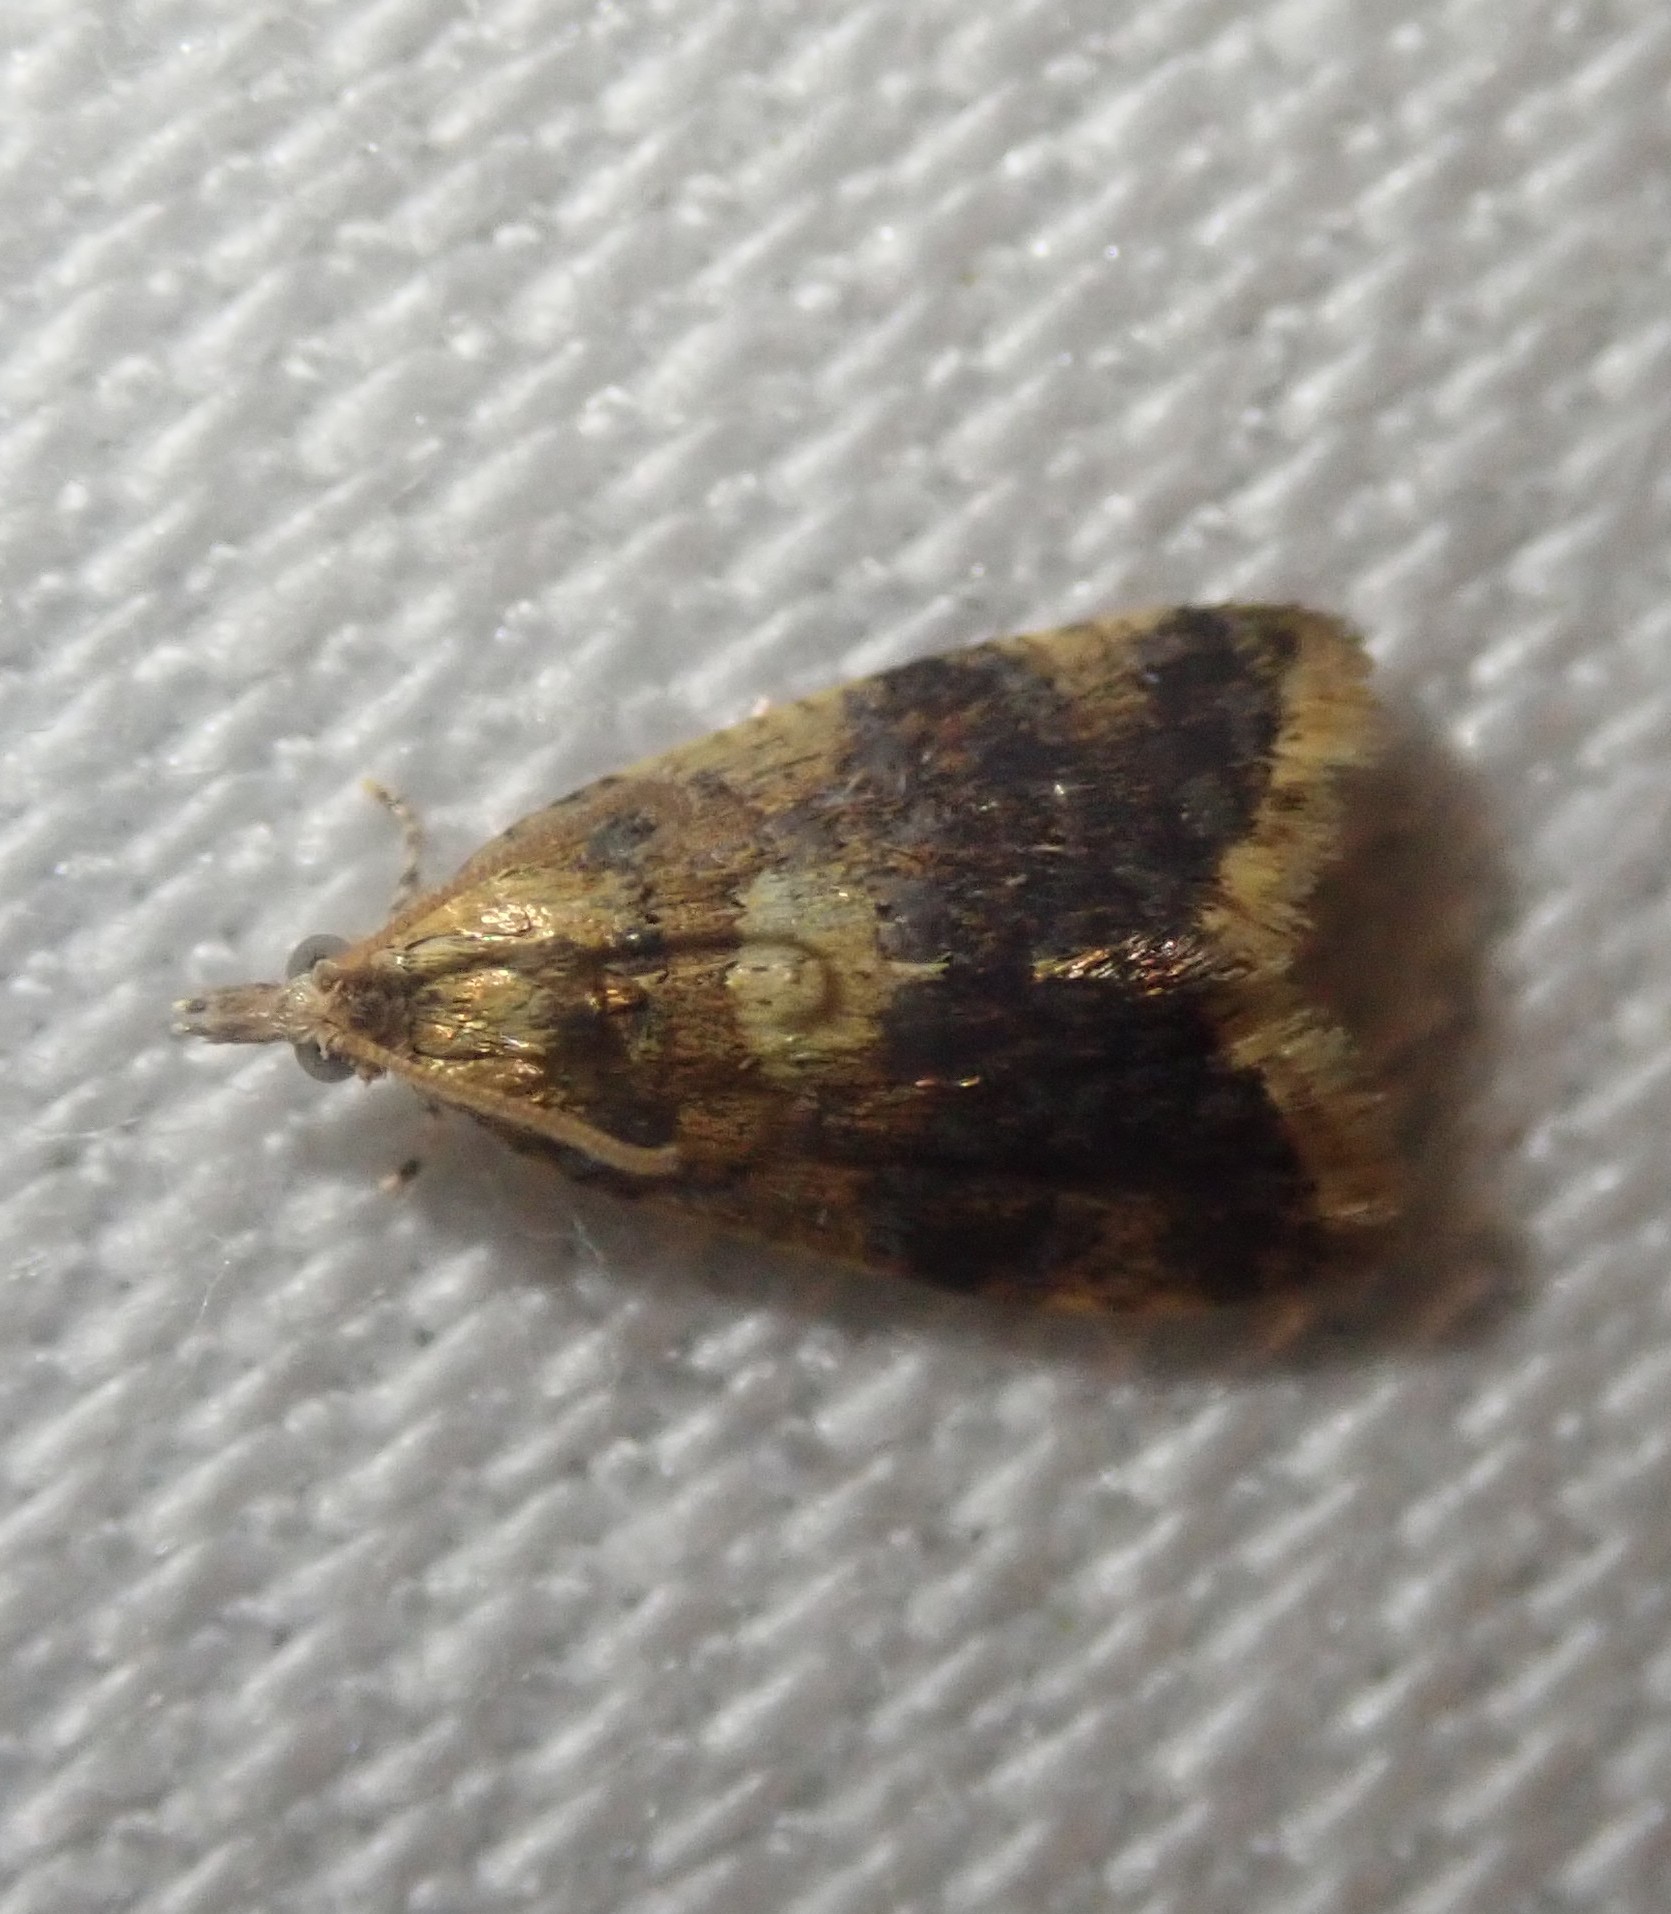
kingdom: Animalia
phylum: Arthropoda
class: Insecta
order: Lepidoptera
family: Tortricidae
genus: Pseudargyrotoza
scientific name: Pseudargyrotoza conwagana
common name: Yellow-spot twist
